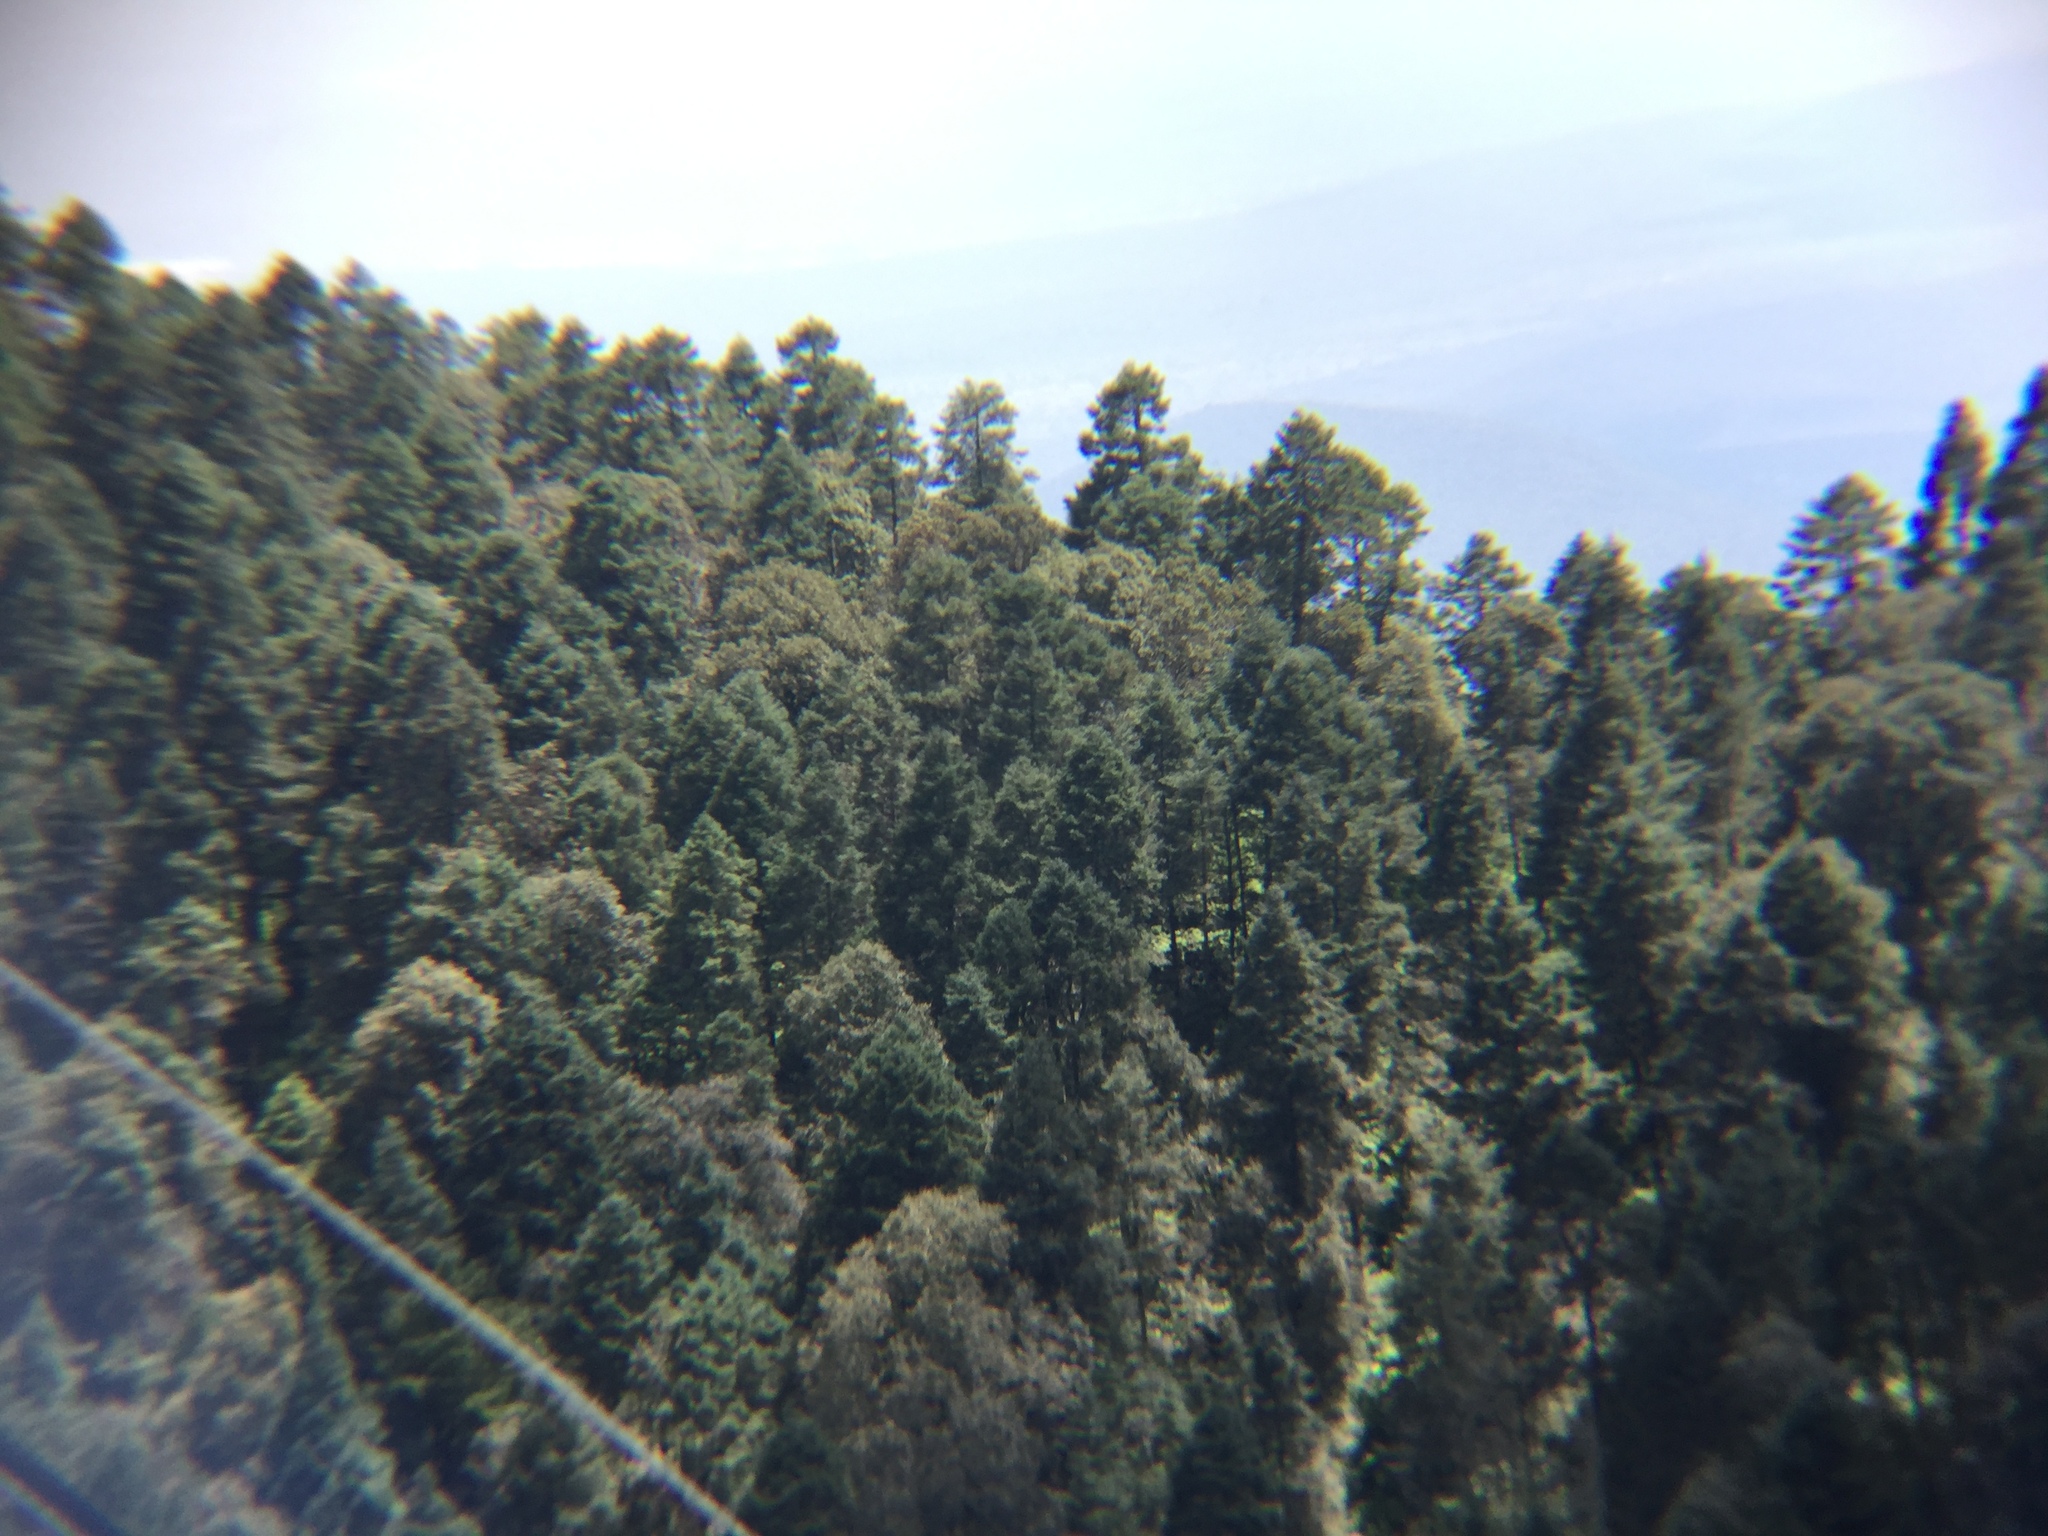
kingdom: Plantae
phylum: Tracheophyta
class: Pinopsida
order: Pinales
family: Pinaceae
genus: Abies
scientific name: Abies religiosa
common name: Sacred fir
